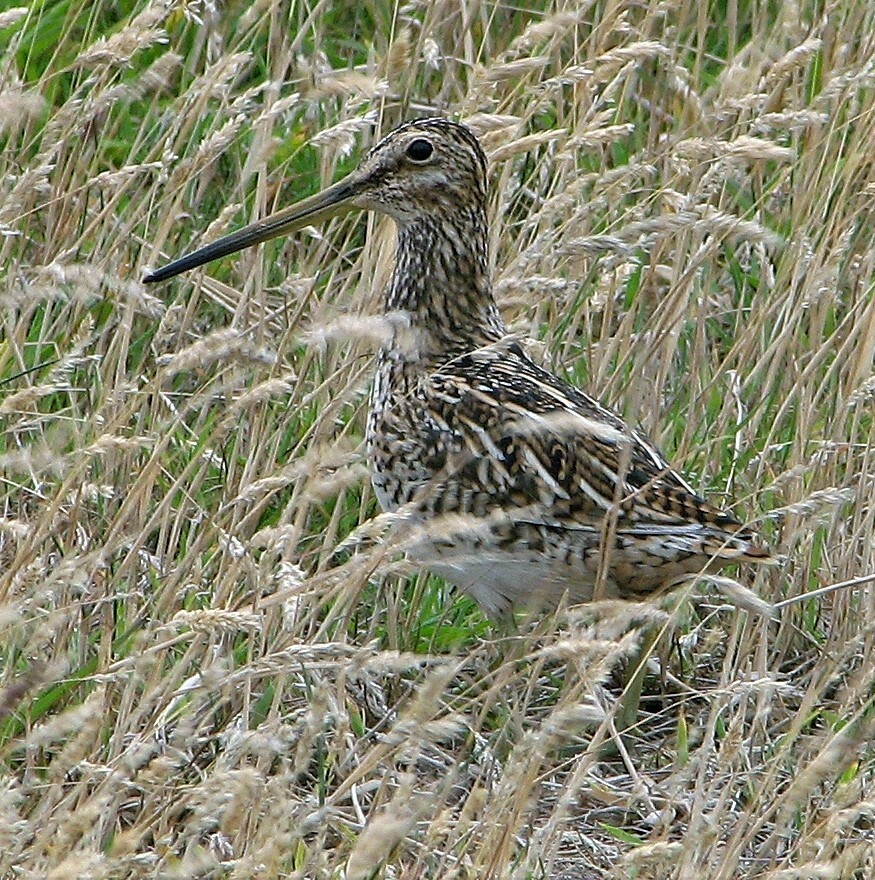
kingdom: Animalia
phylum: Chordata
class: Aves
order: Charadriiformes
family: Scolopacidae
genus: Gallinago
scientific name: Gallinago magellanica
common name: Magellanic snipe
